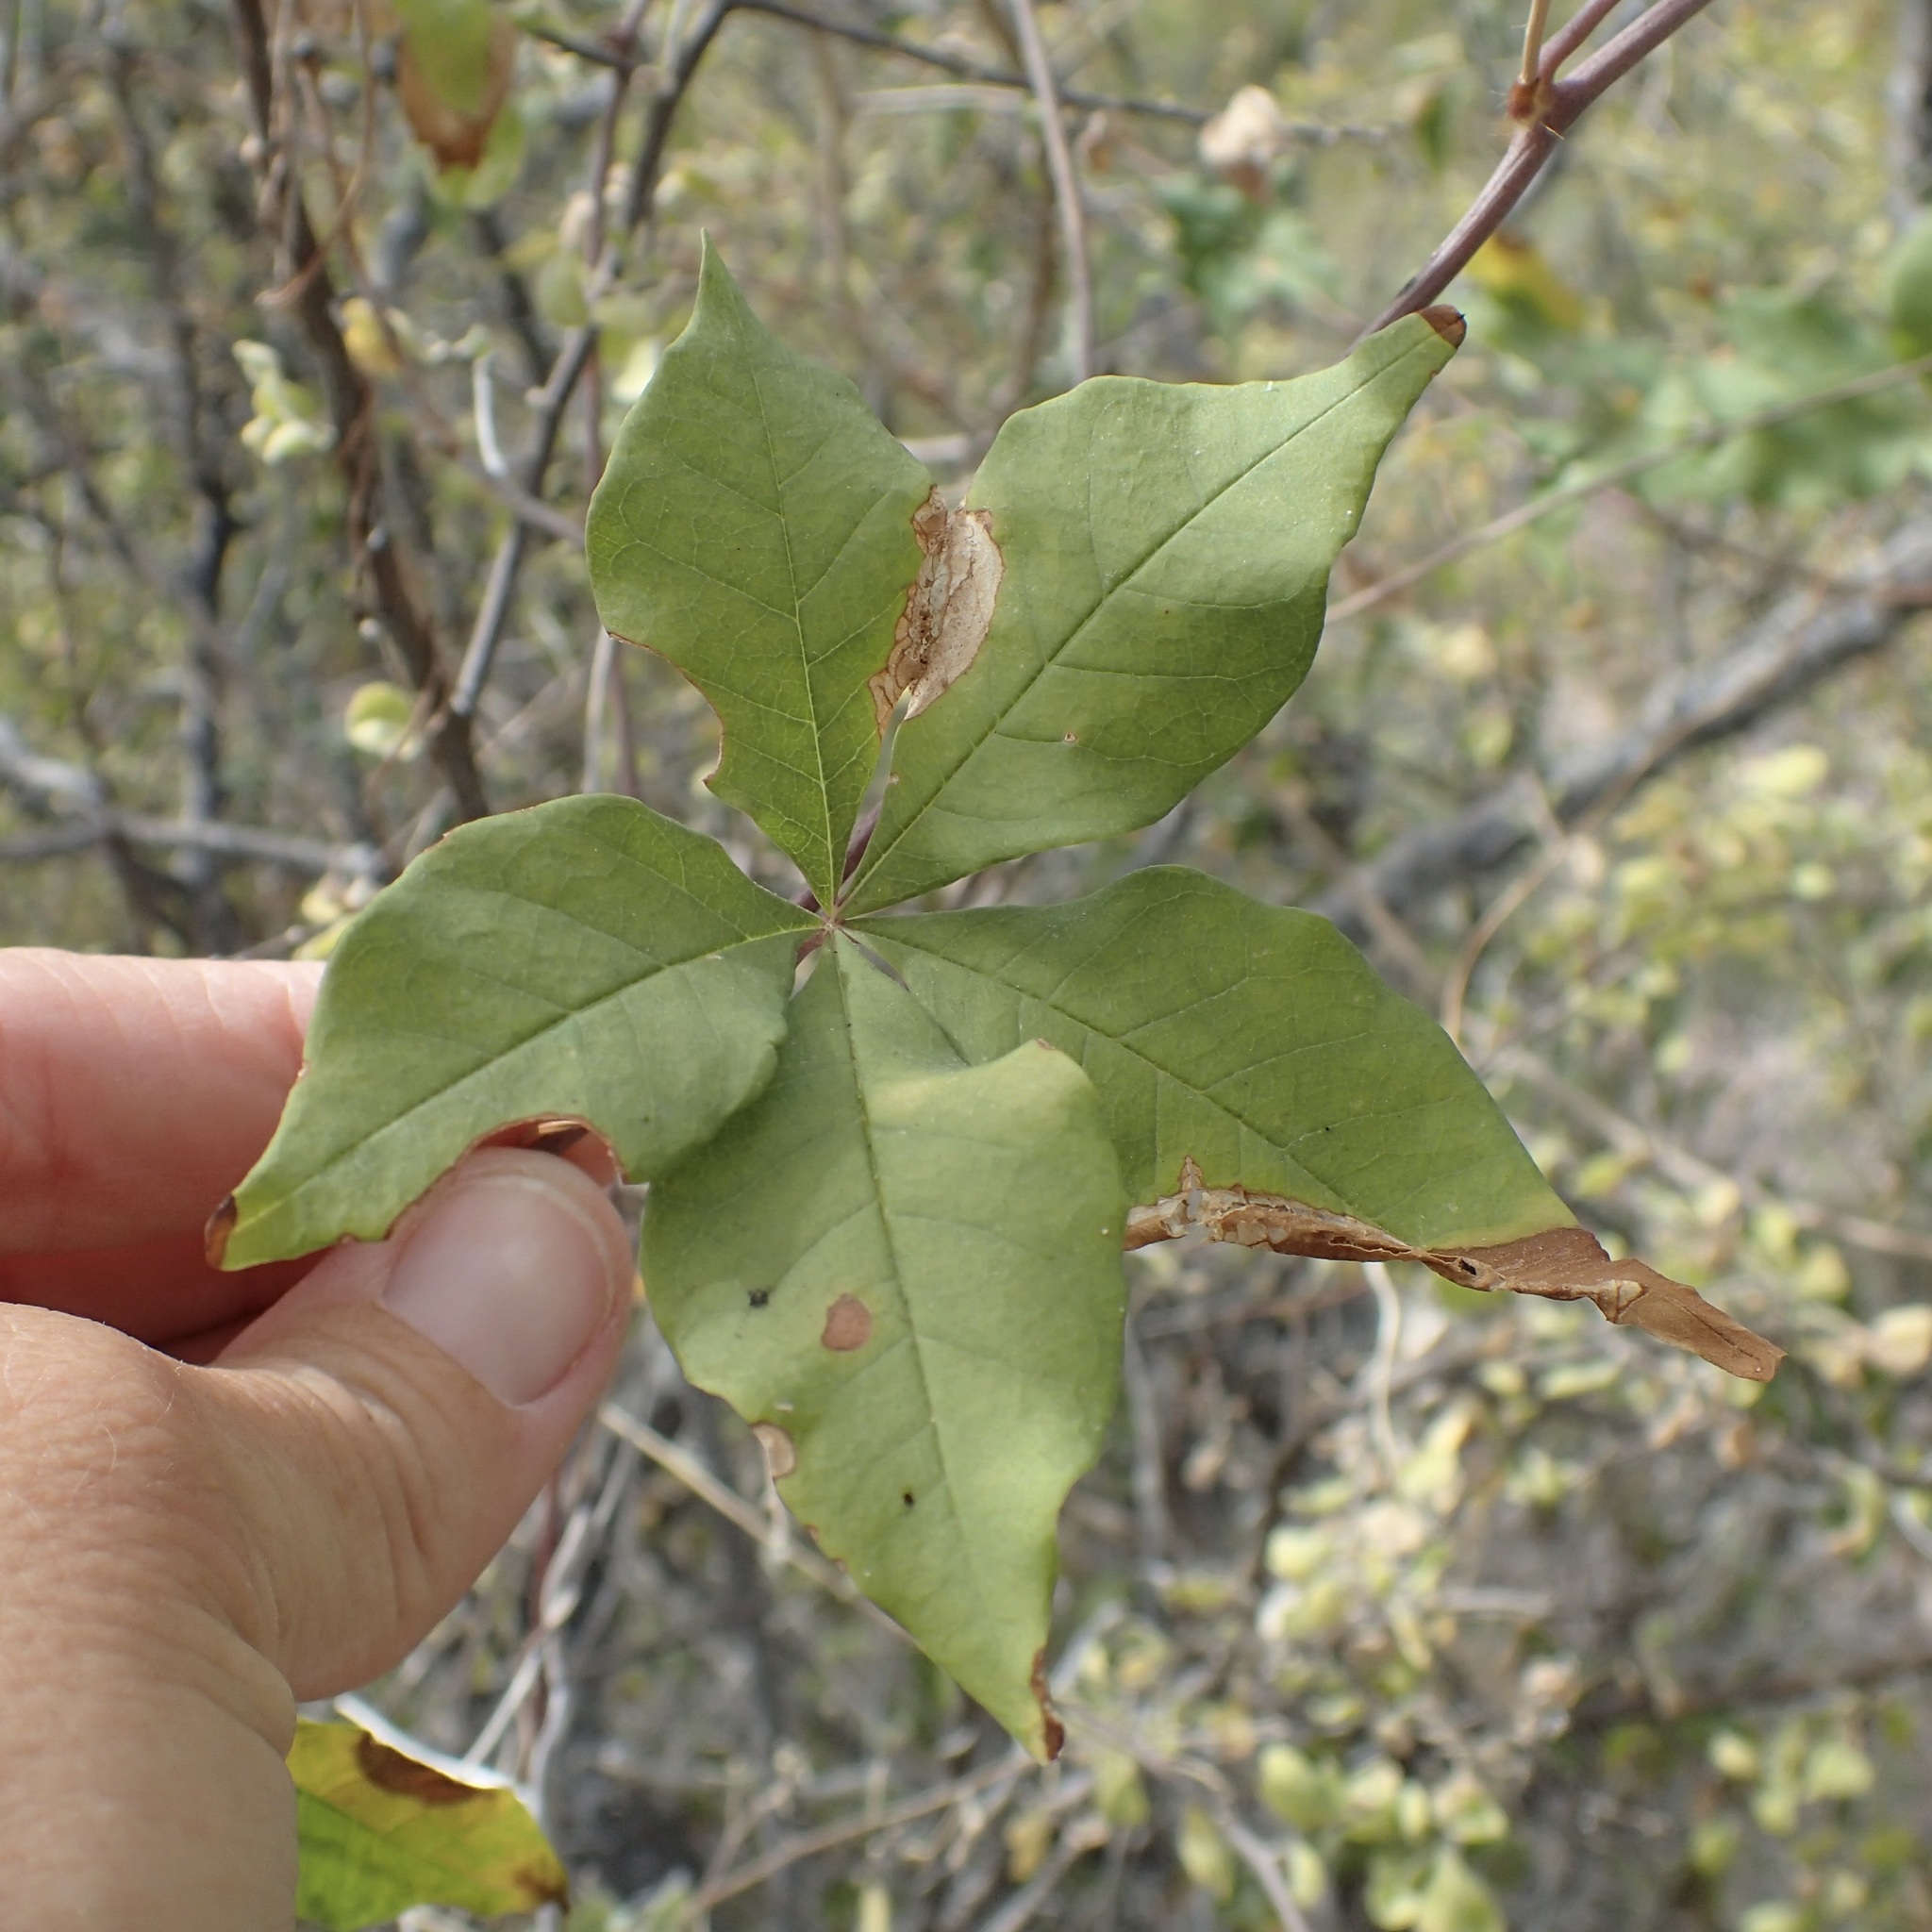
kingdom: Plantae
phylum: Tracheophyta
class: Magnoliopsida
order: Solanales
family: Convolvulaceae
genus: Distimake
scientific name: Distimake aureus
